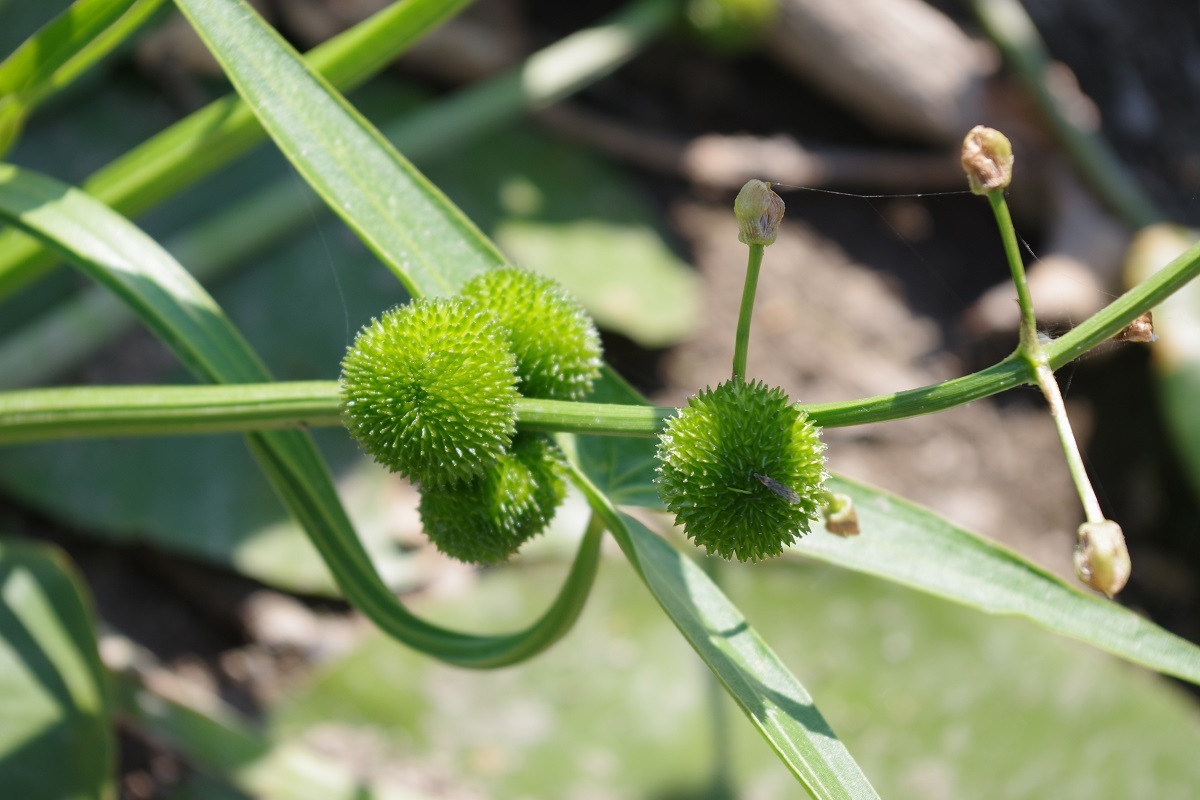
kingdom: Plantae
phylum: Tracheophyta
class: Liliopsida
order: Alismatales
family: Alismataceae
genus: Sagittaria
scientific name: Sagittaria sagittifolia
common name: Arrowhead
